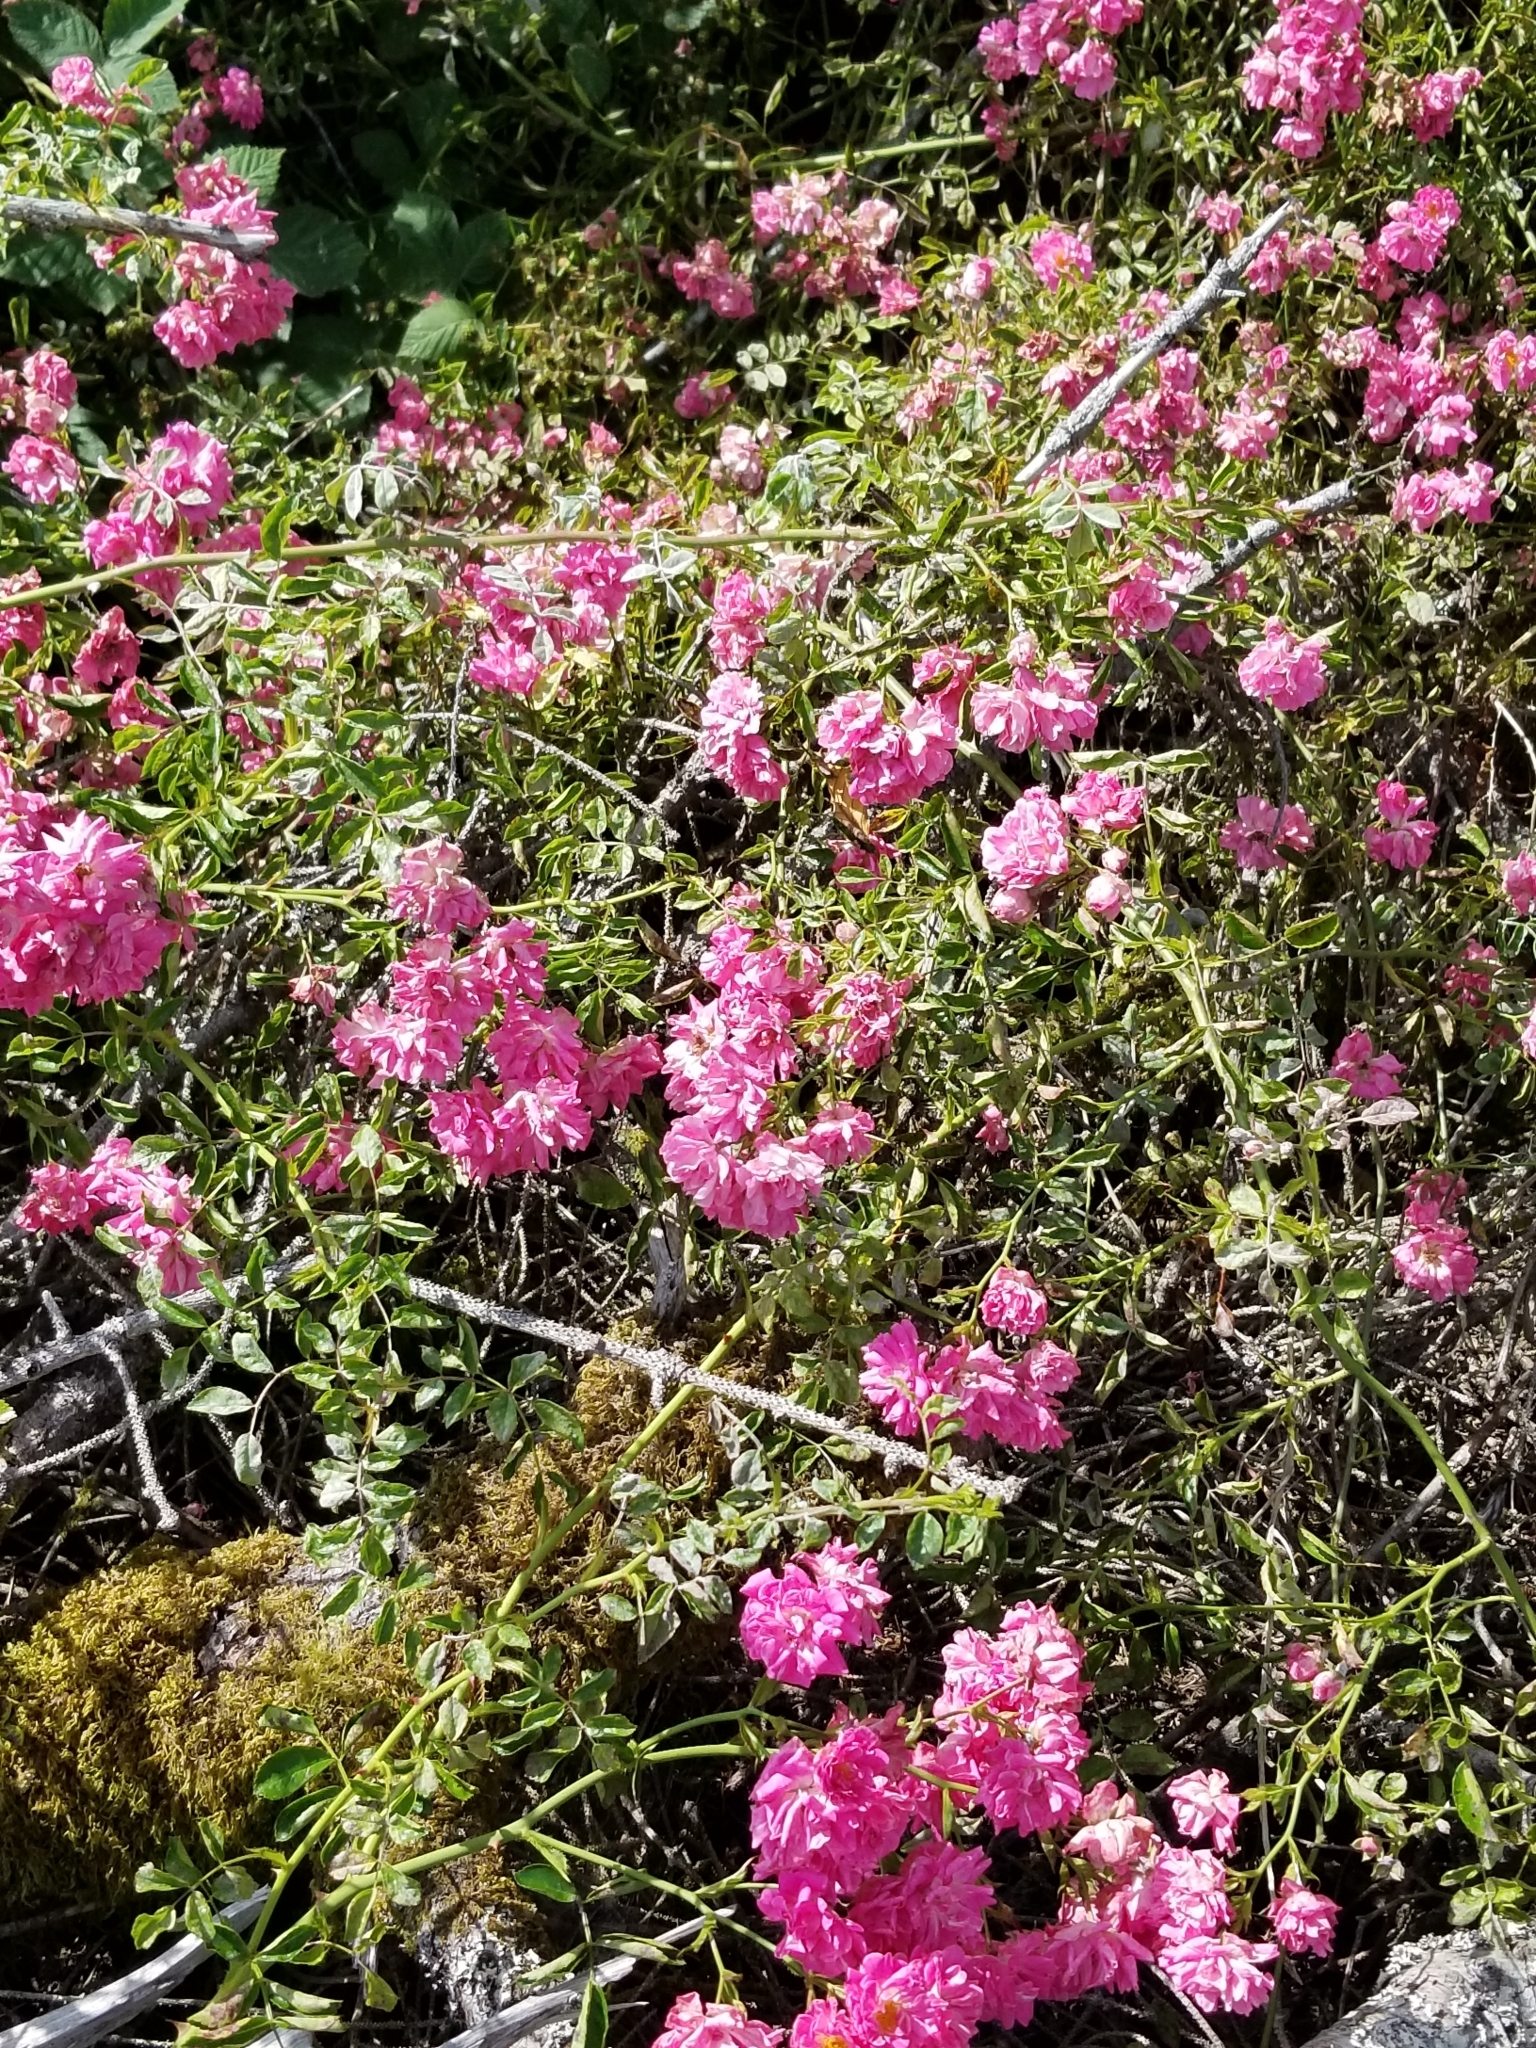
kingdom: Plantae
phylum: Tracheophyta
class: Magnoliopsida
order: Rosales
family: Rosaceae
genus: Rosa
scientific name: Rosa multiflora
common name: Multiflora rose
